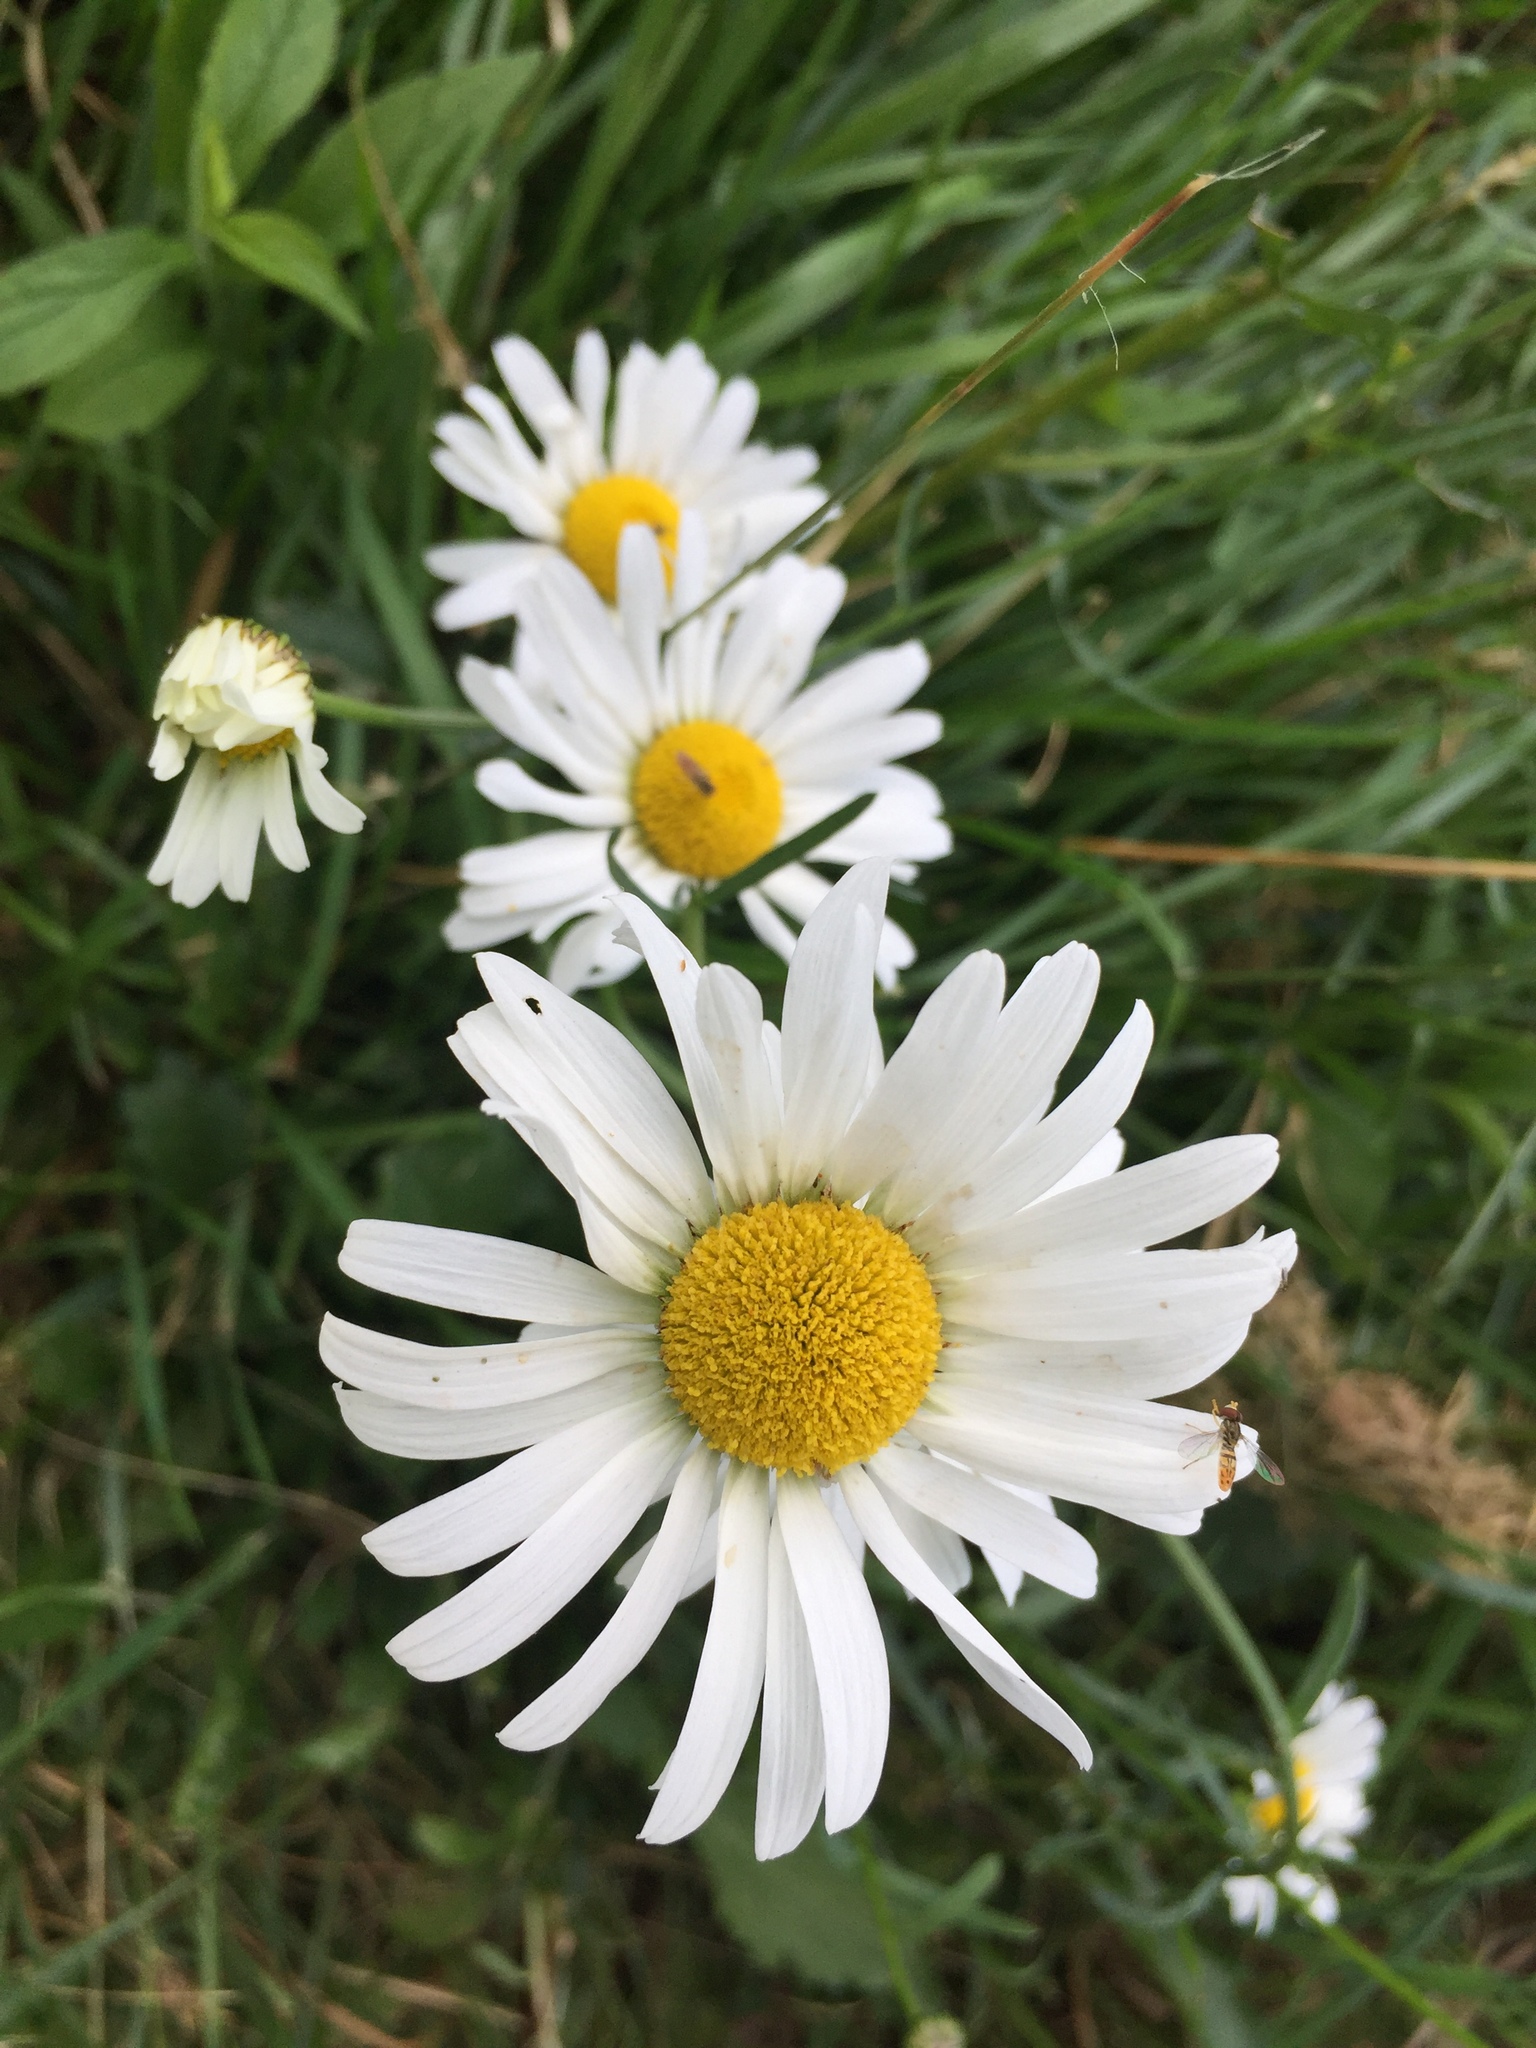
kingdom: Plantae
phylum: Tracheophyta
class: Magnoliopsida
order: Asterales
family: Asteraceae
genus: Leucanthemum
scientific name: Leucanthemum vulgare
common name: Oxeye daisy
